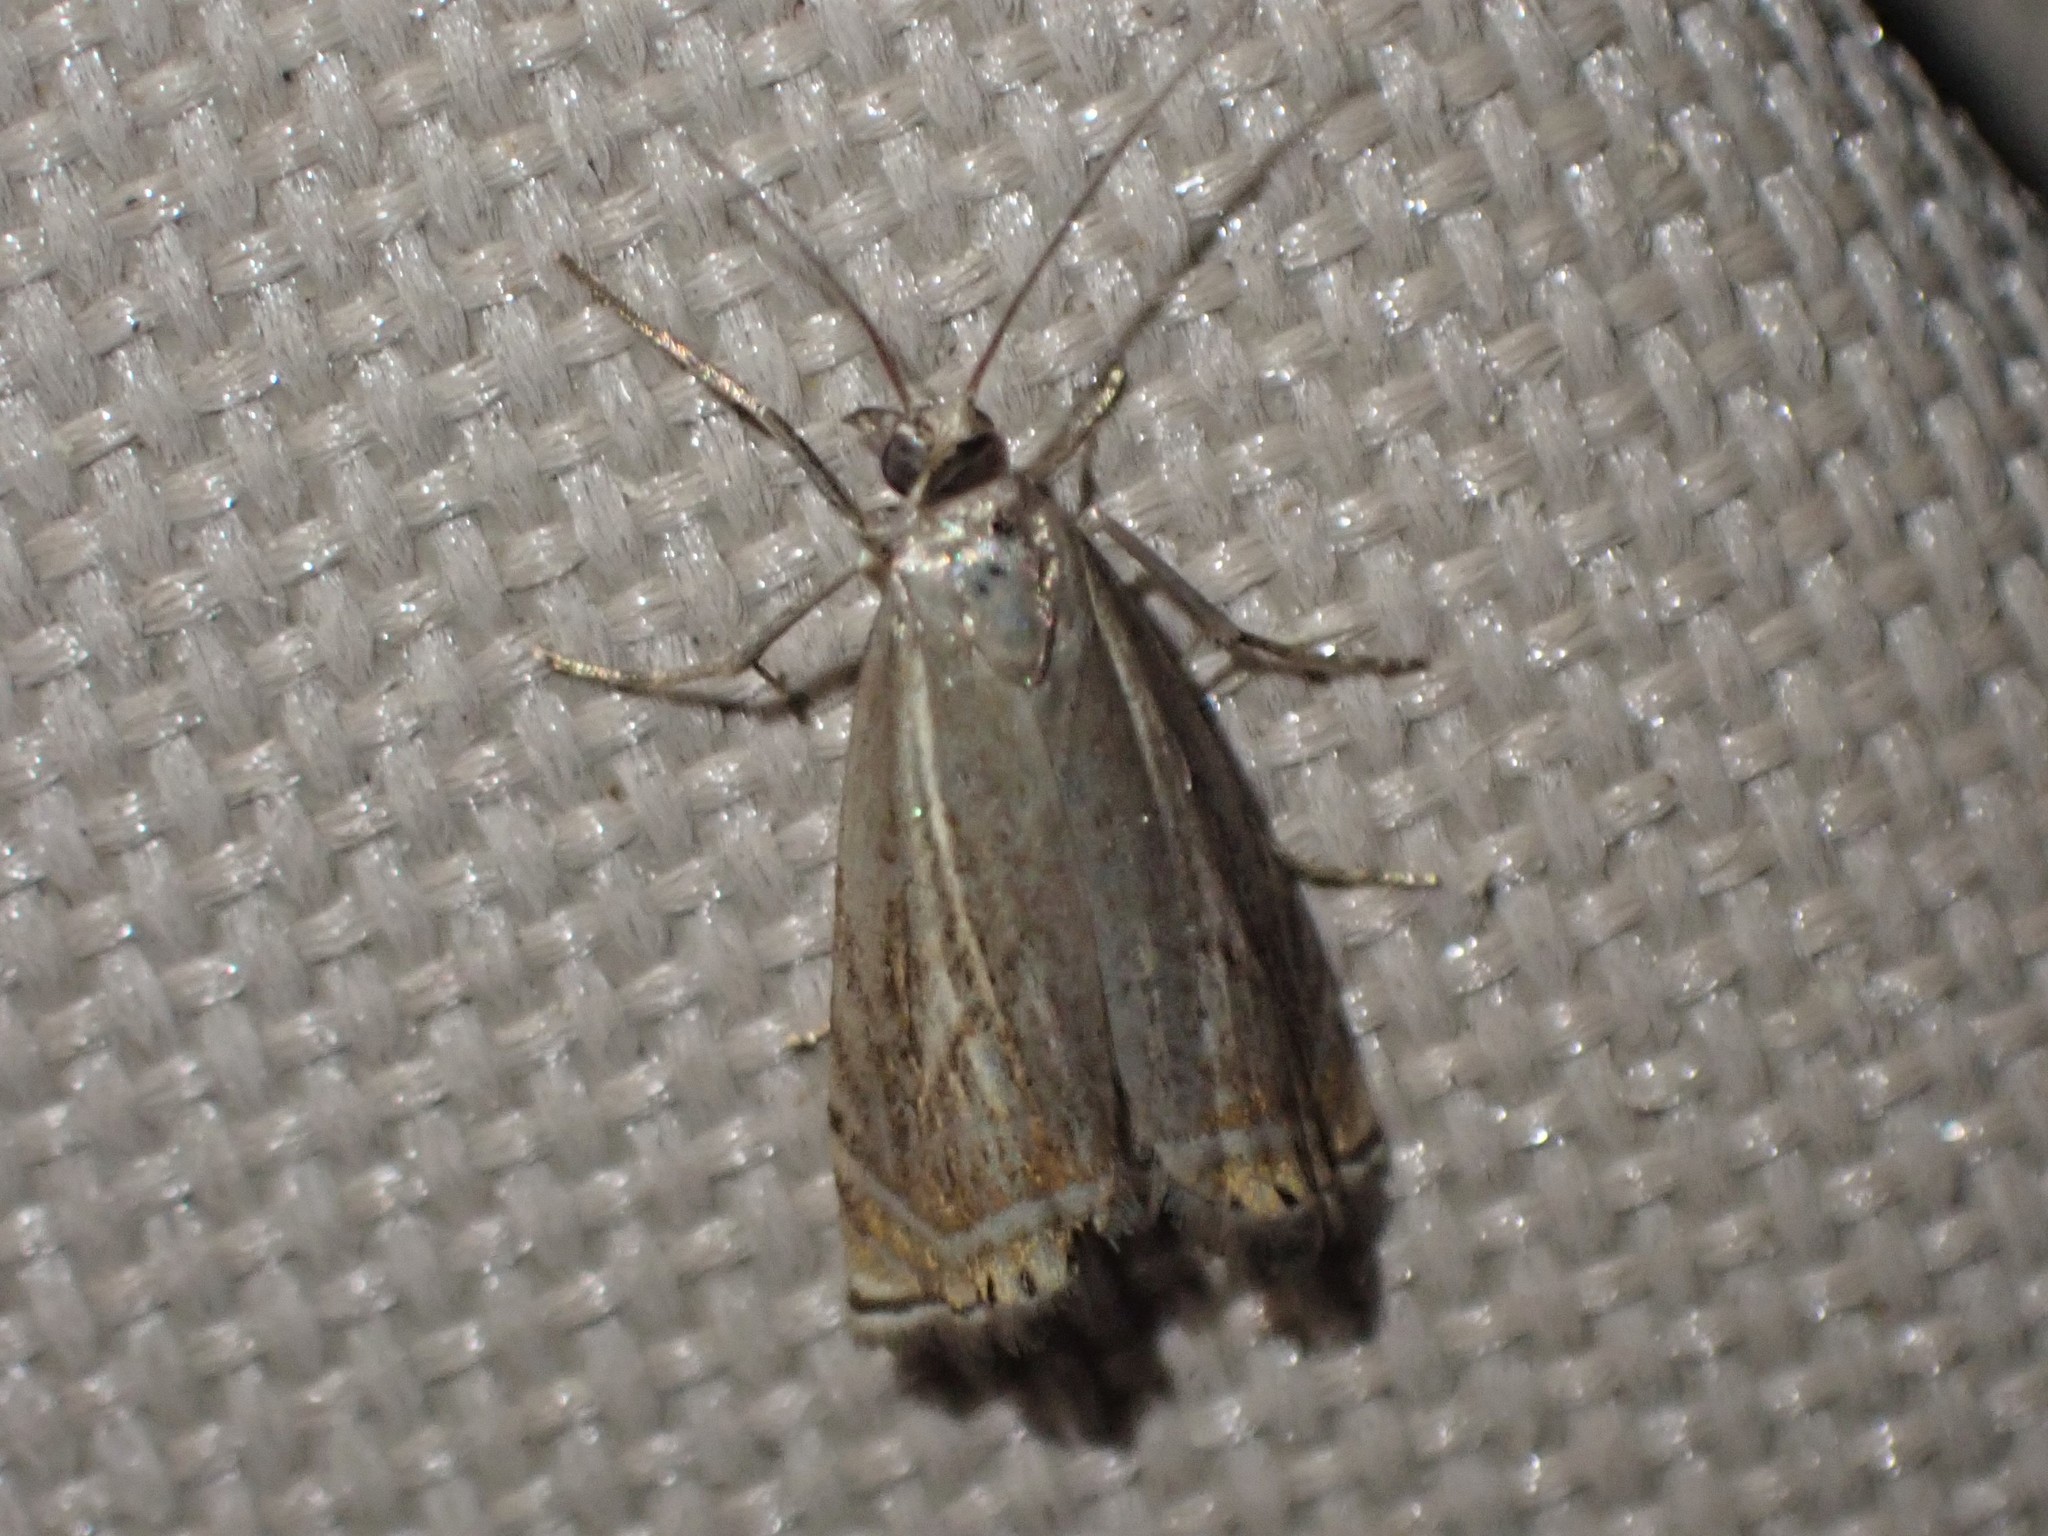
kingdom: Animalia
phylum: Arthropoda
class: Insecta
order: Lepidoptera
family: Crambidae
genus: Chrysoteuchia
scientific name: Chrysoteuchia topiarius
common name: Topiary grass-veneer
